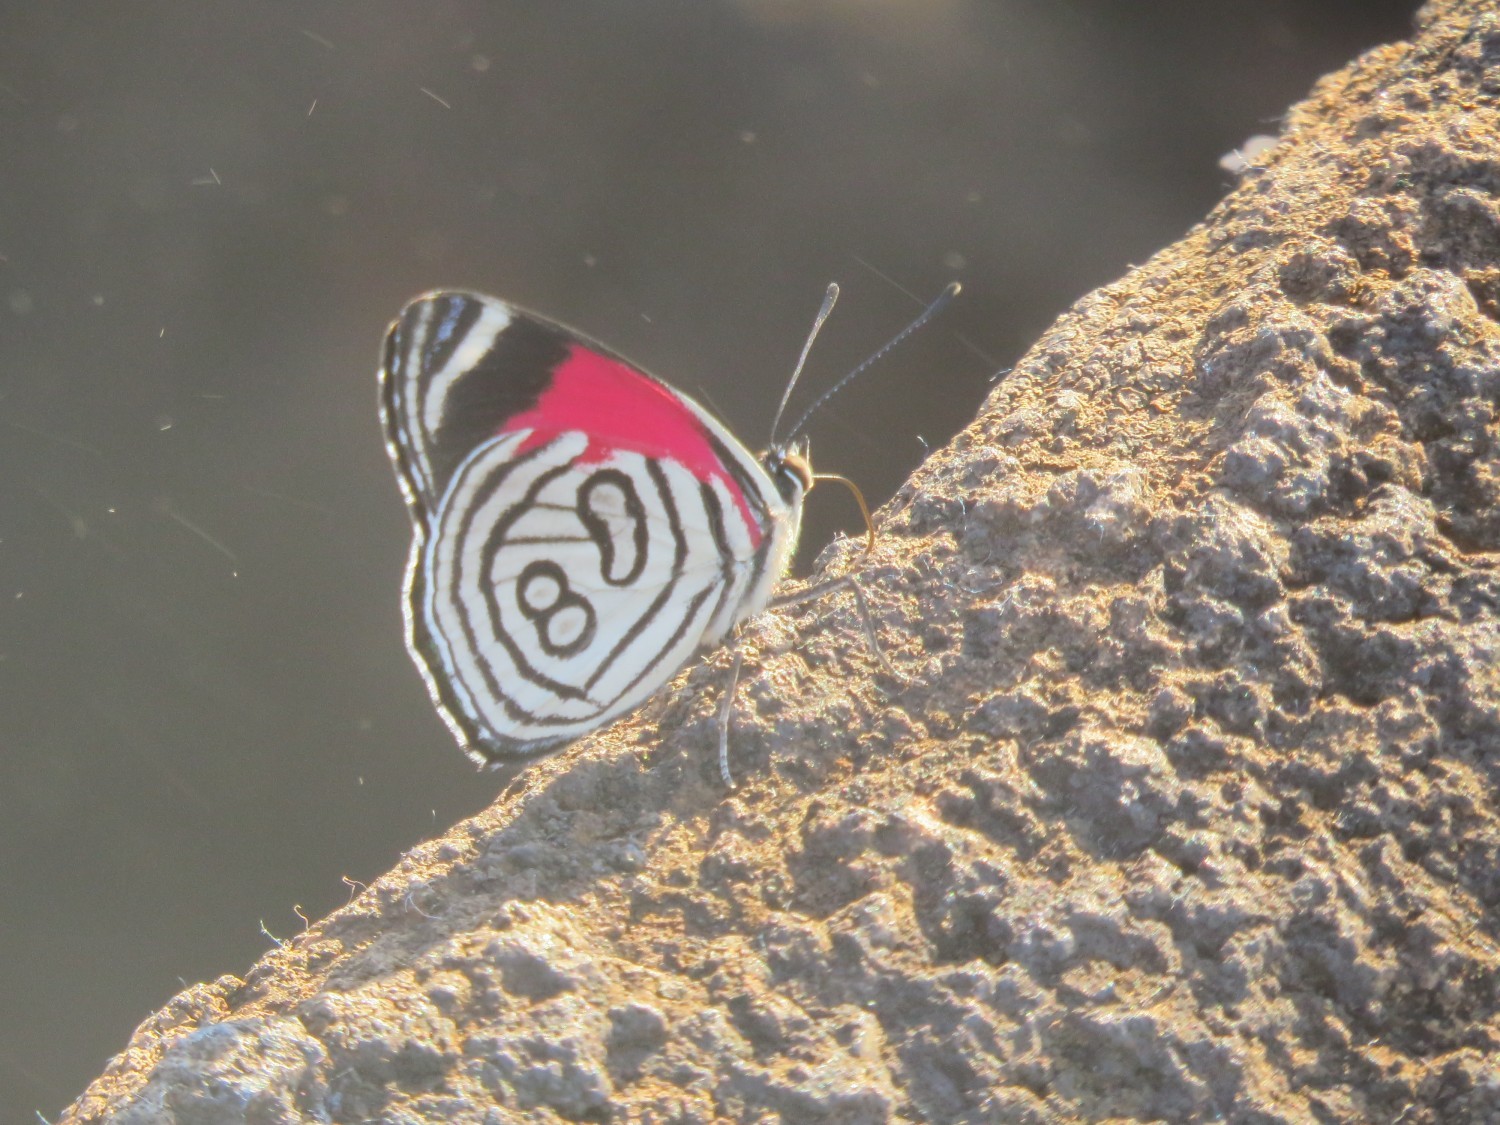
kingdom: Animalia
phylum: Arthropoda
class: Insecta
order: Lepidoptera
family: Nymphalidae
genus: Diaethria
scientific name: Diaethria candrena
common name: Number eighty
